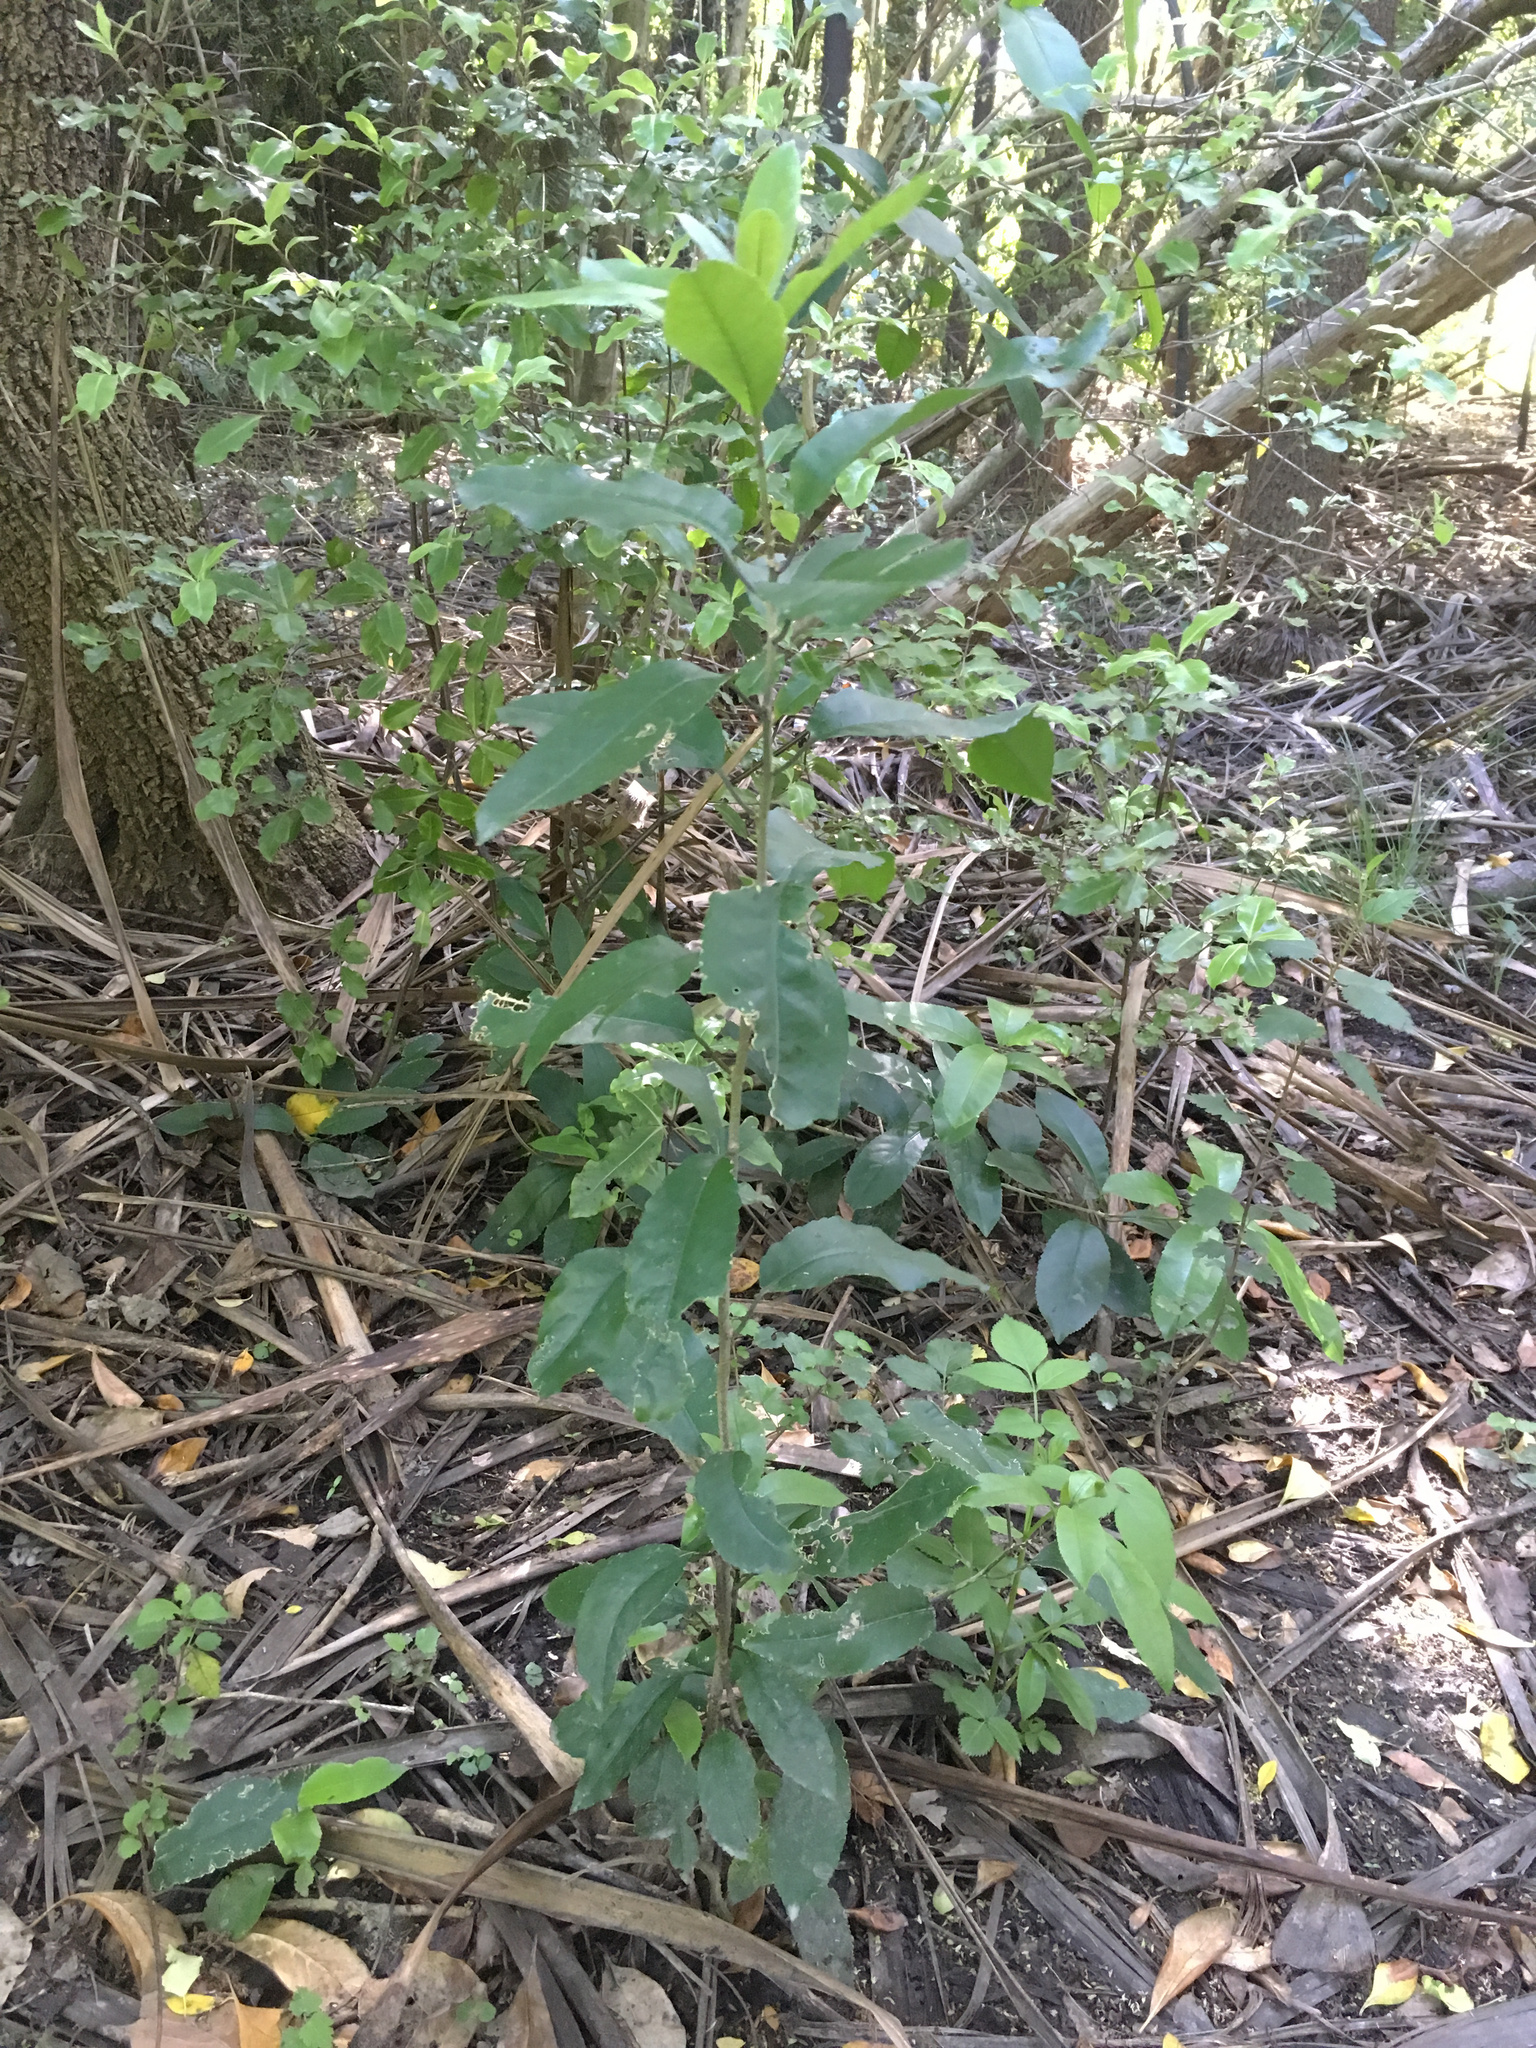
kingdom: Plantae
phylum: Tracheophyta
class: Magnoliopsida
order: Malpighiales
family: Violaceae
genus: Melicytus
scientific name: Melicytus ramiflorus
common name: Mahoe
